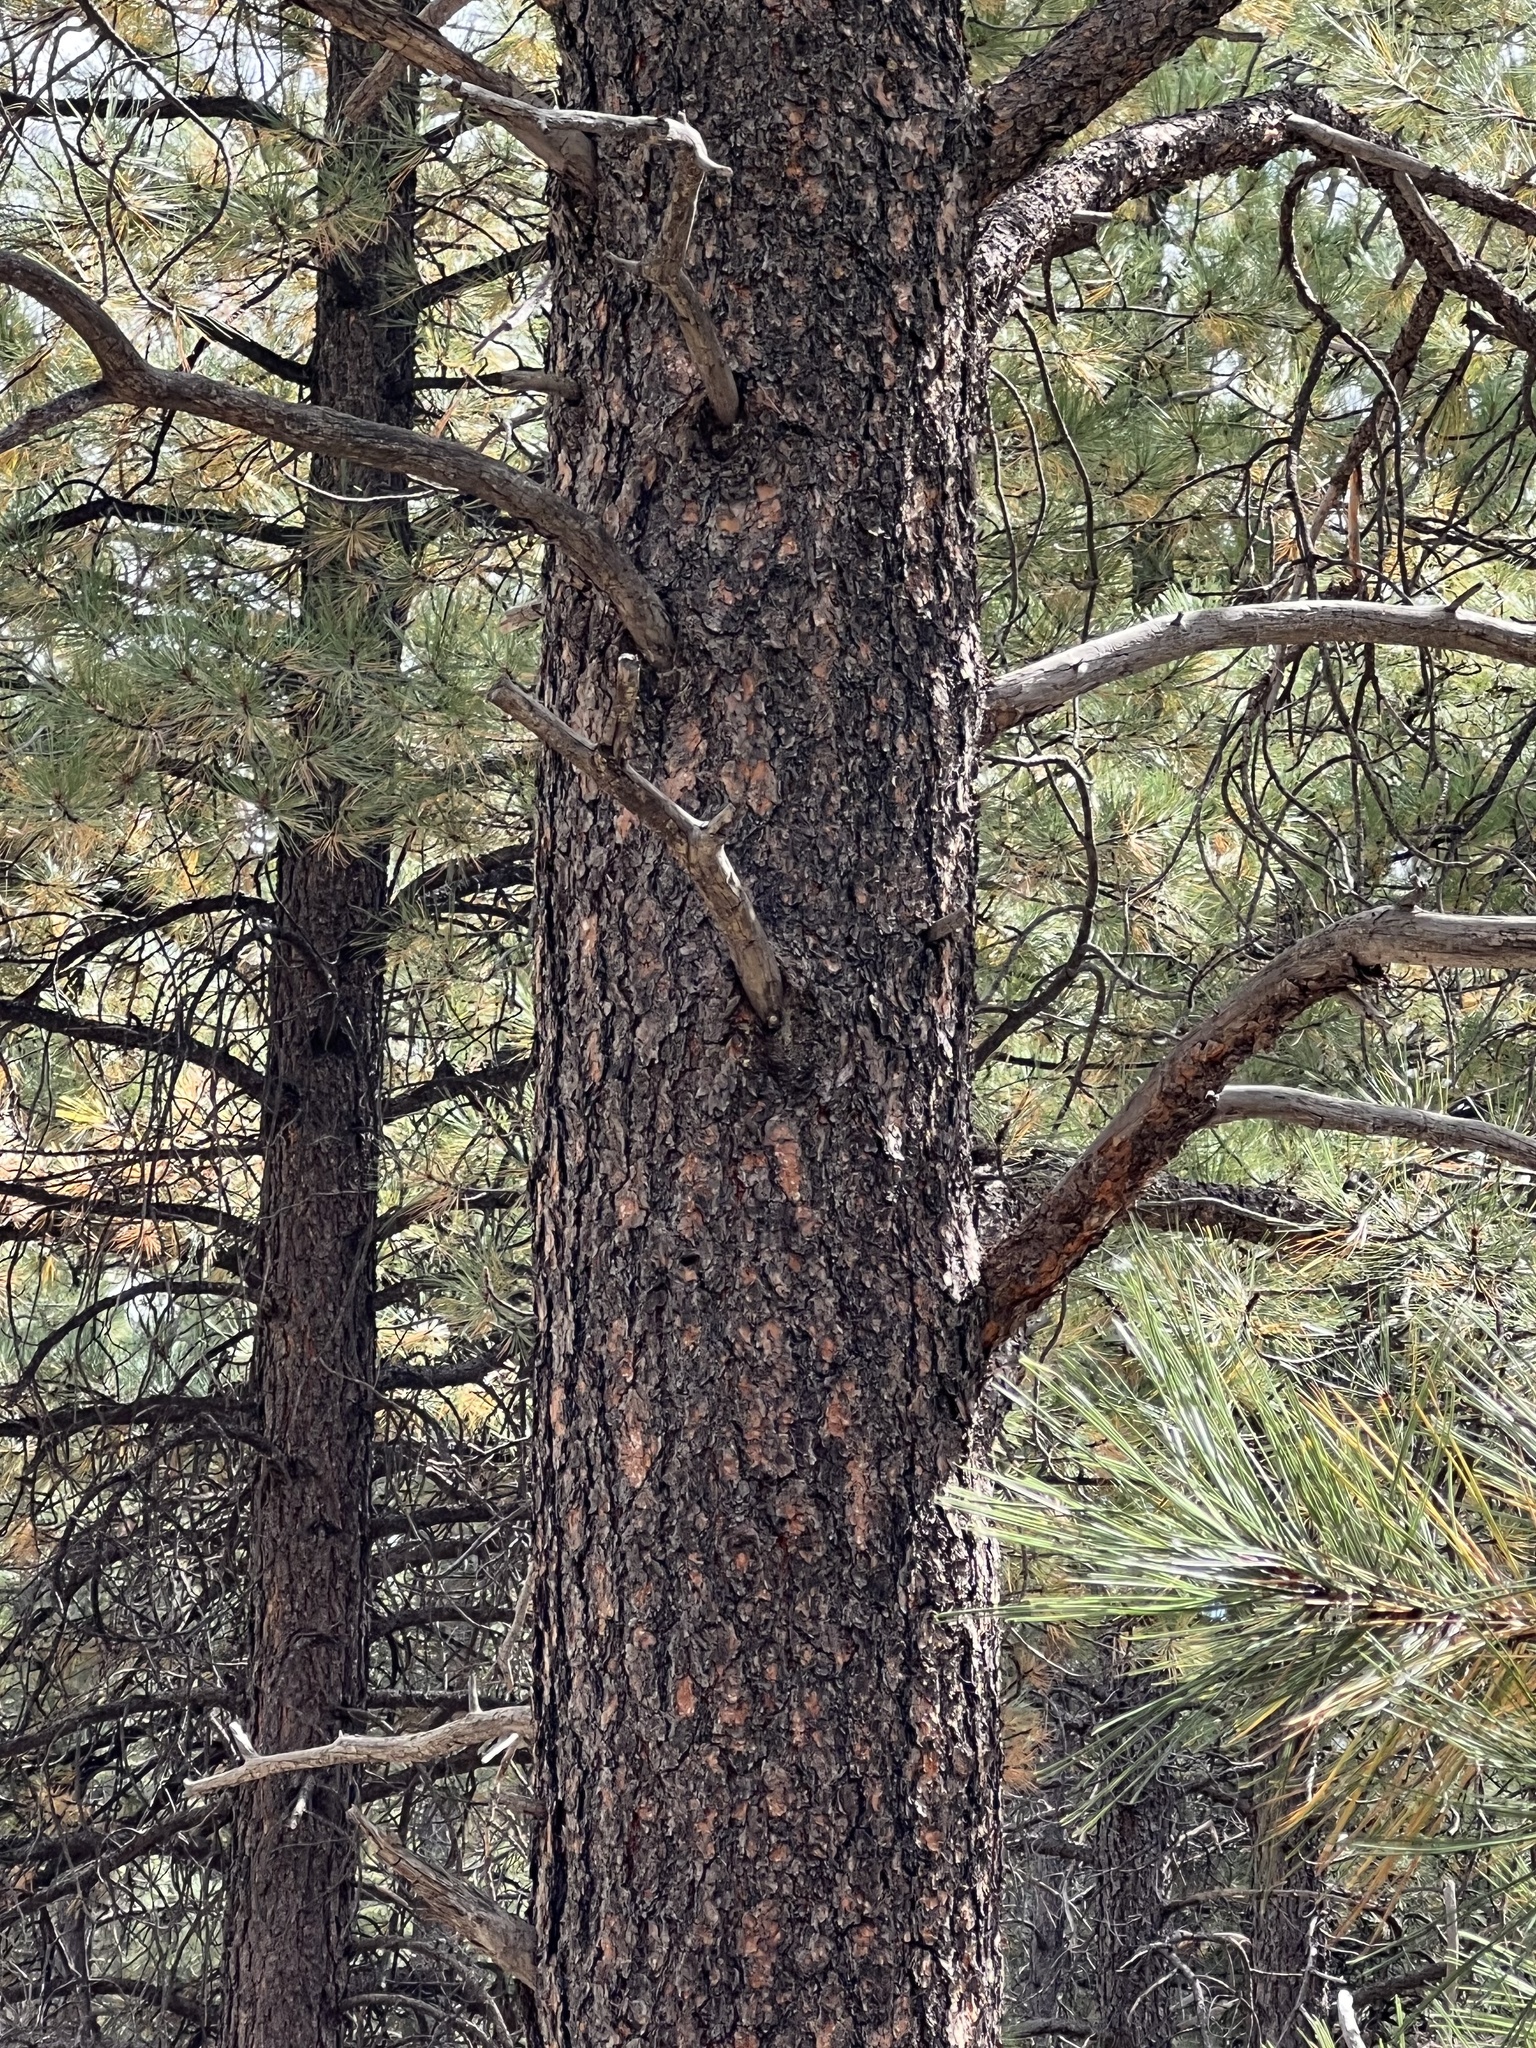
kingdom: Plantae
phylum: Tracheophyta
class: Pinopsida
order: Pinales
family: Pinaceae
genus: Pinus
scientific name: Pinus ponderosa
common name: Western yellow-pine
